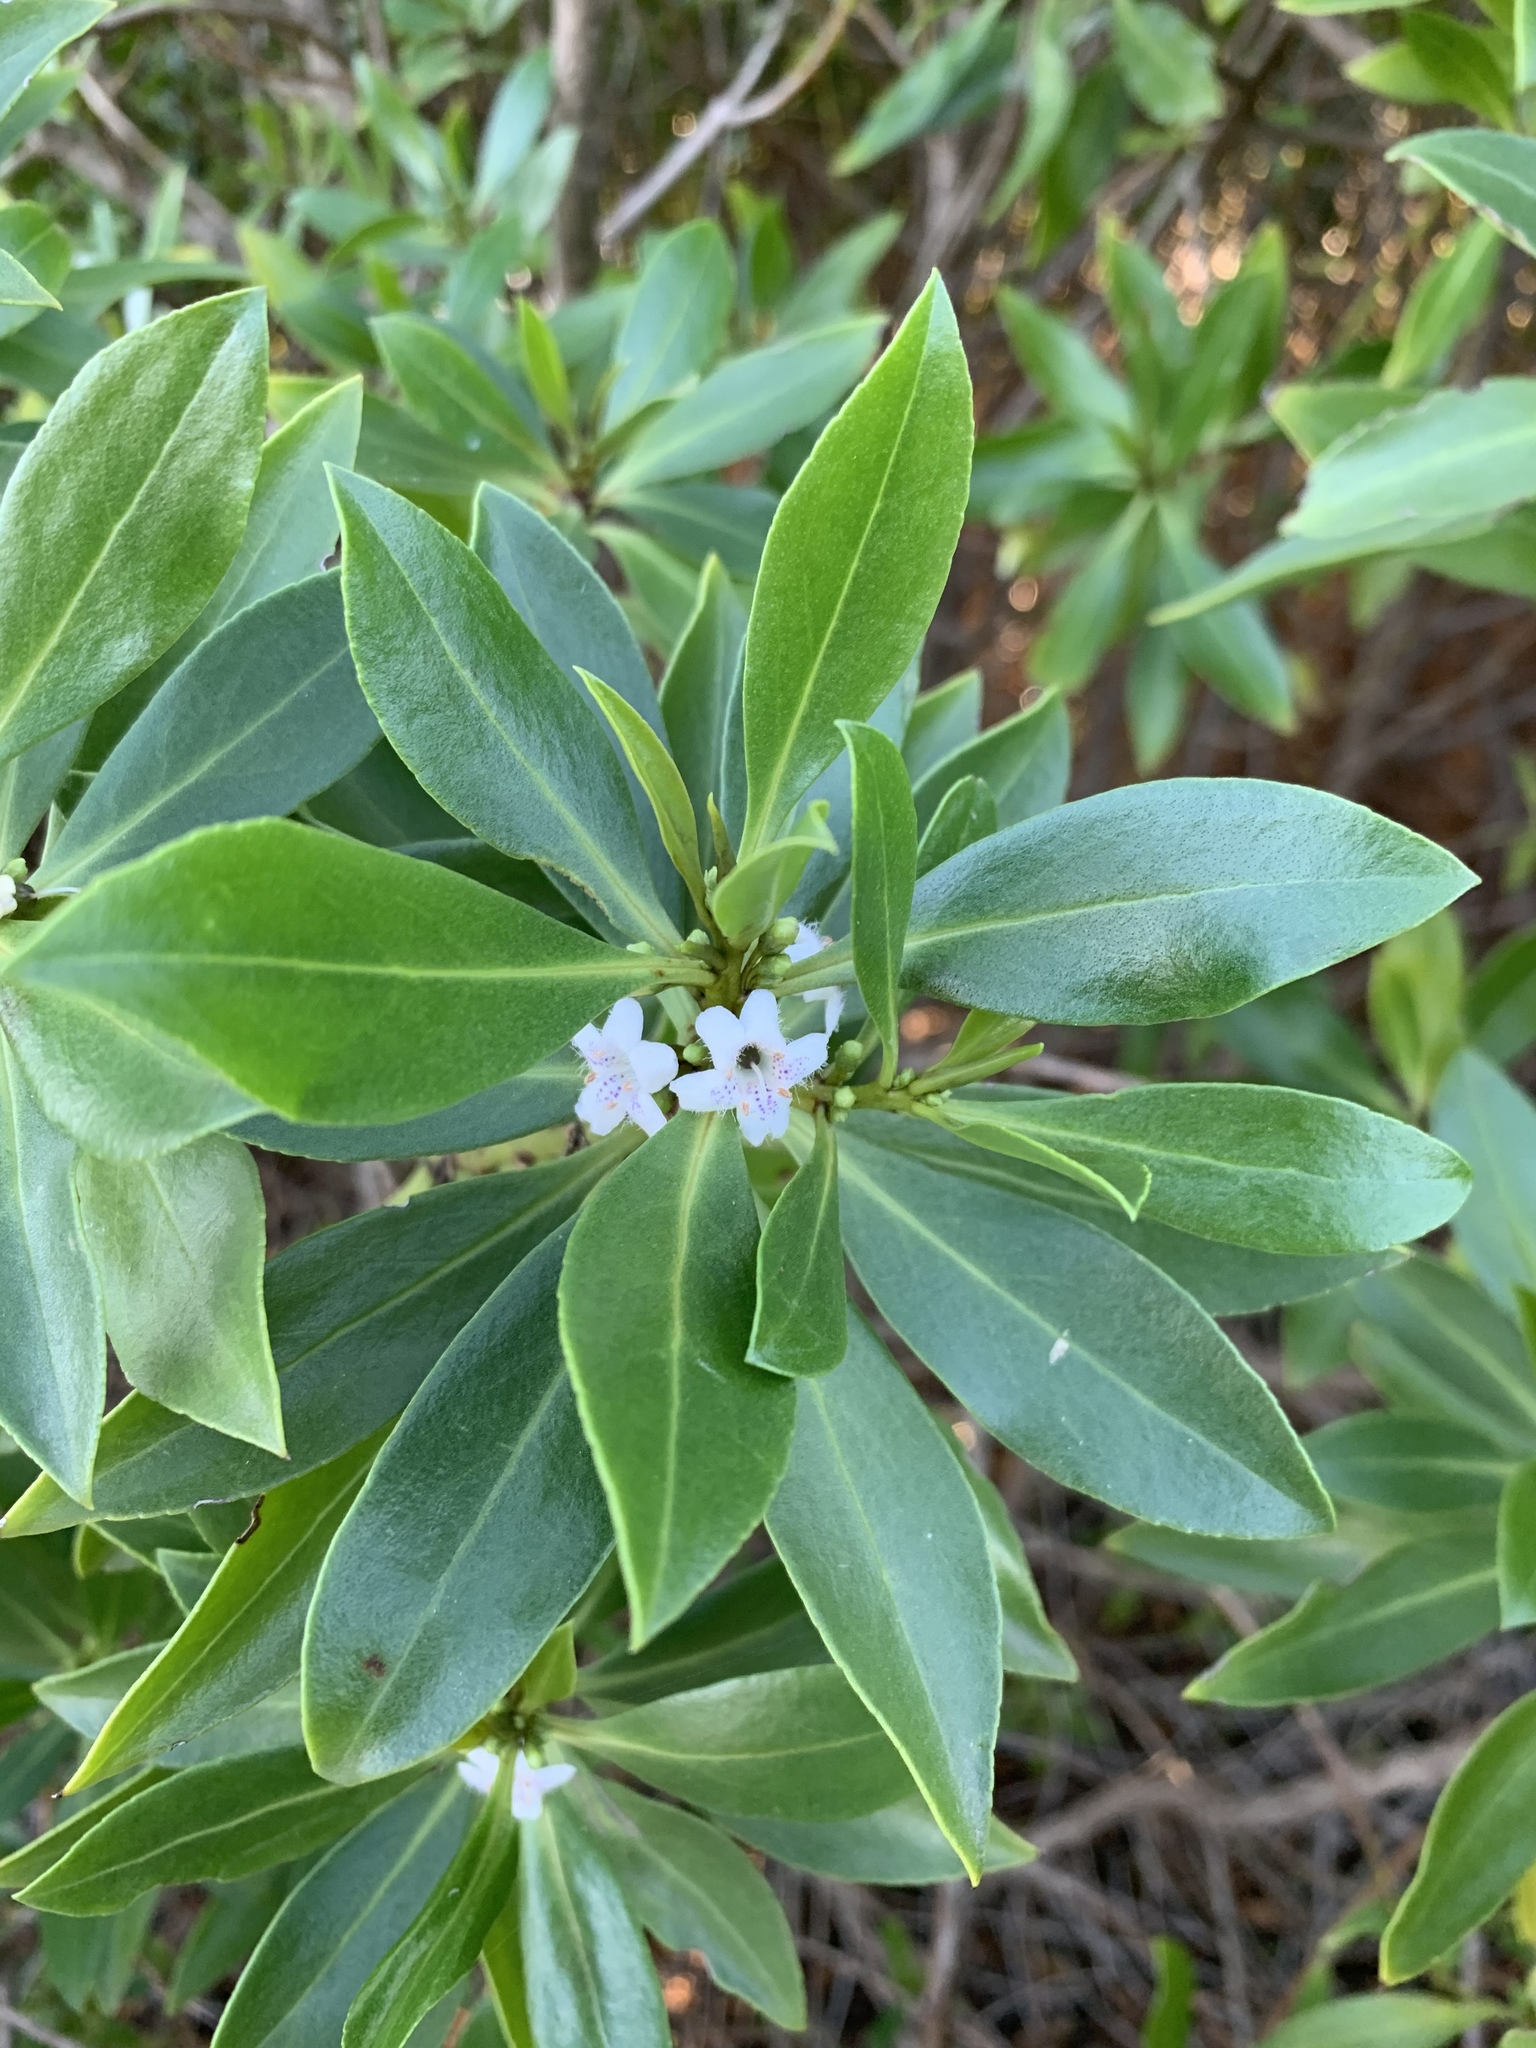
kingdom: Plantae
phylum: Tracheophyta
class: Magnoliopsida
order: Lamiales
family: Scrophulariaceae
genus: Myoporum
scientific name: Myoporum insulare
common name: Common boobialla
